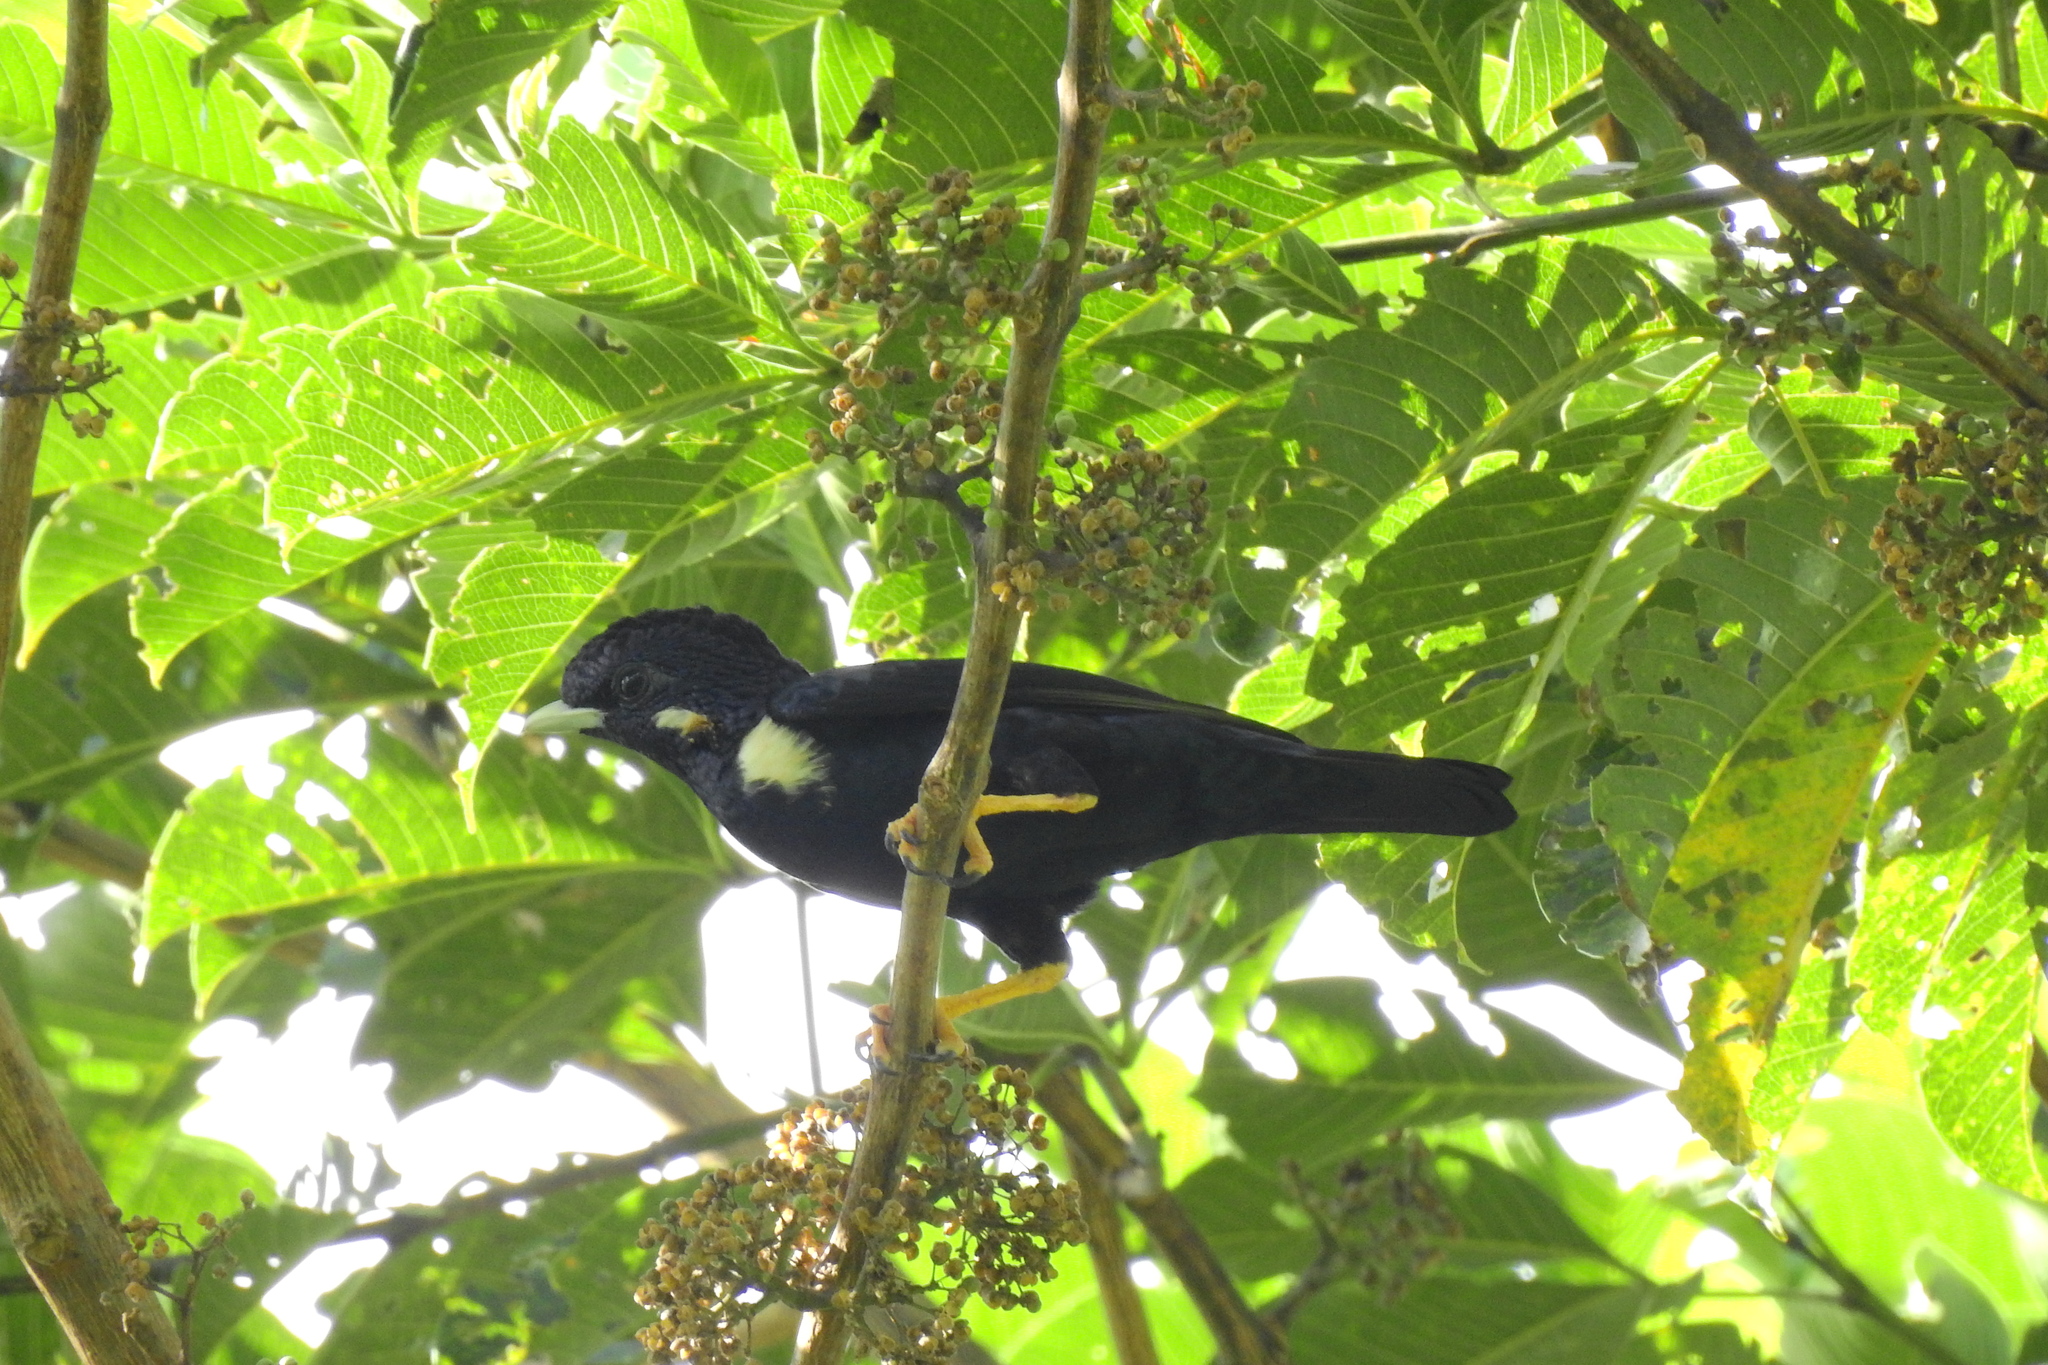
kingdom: Animalia
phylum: Chordata
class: Aves
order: Passeriformes
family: Sturnidae
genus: Basilornis
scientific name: Basilornis celebensis
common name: Sulawesi myna
